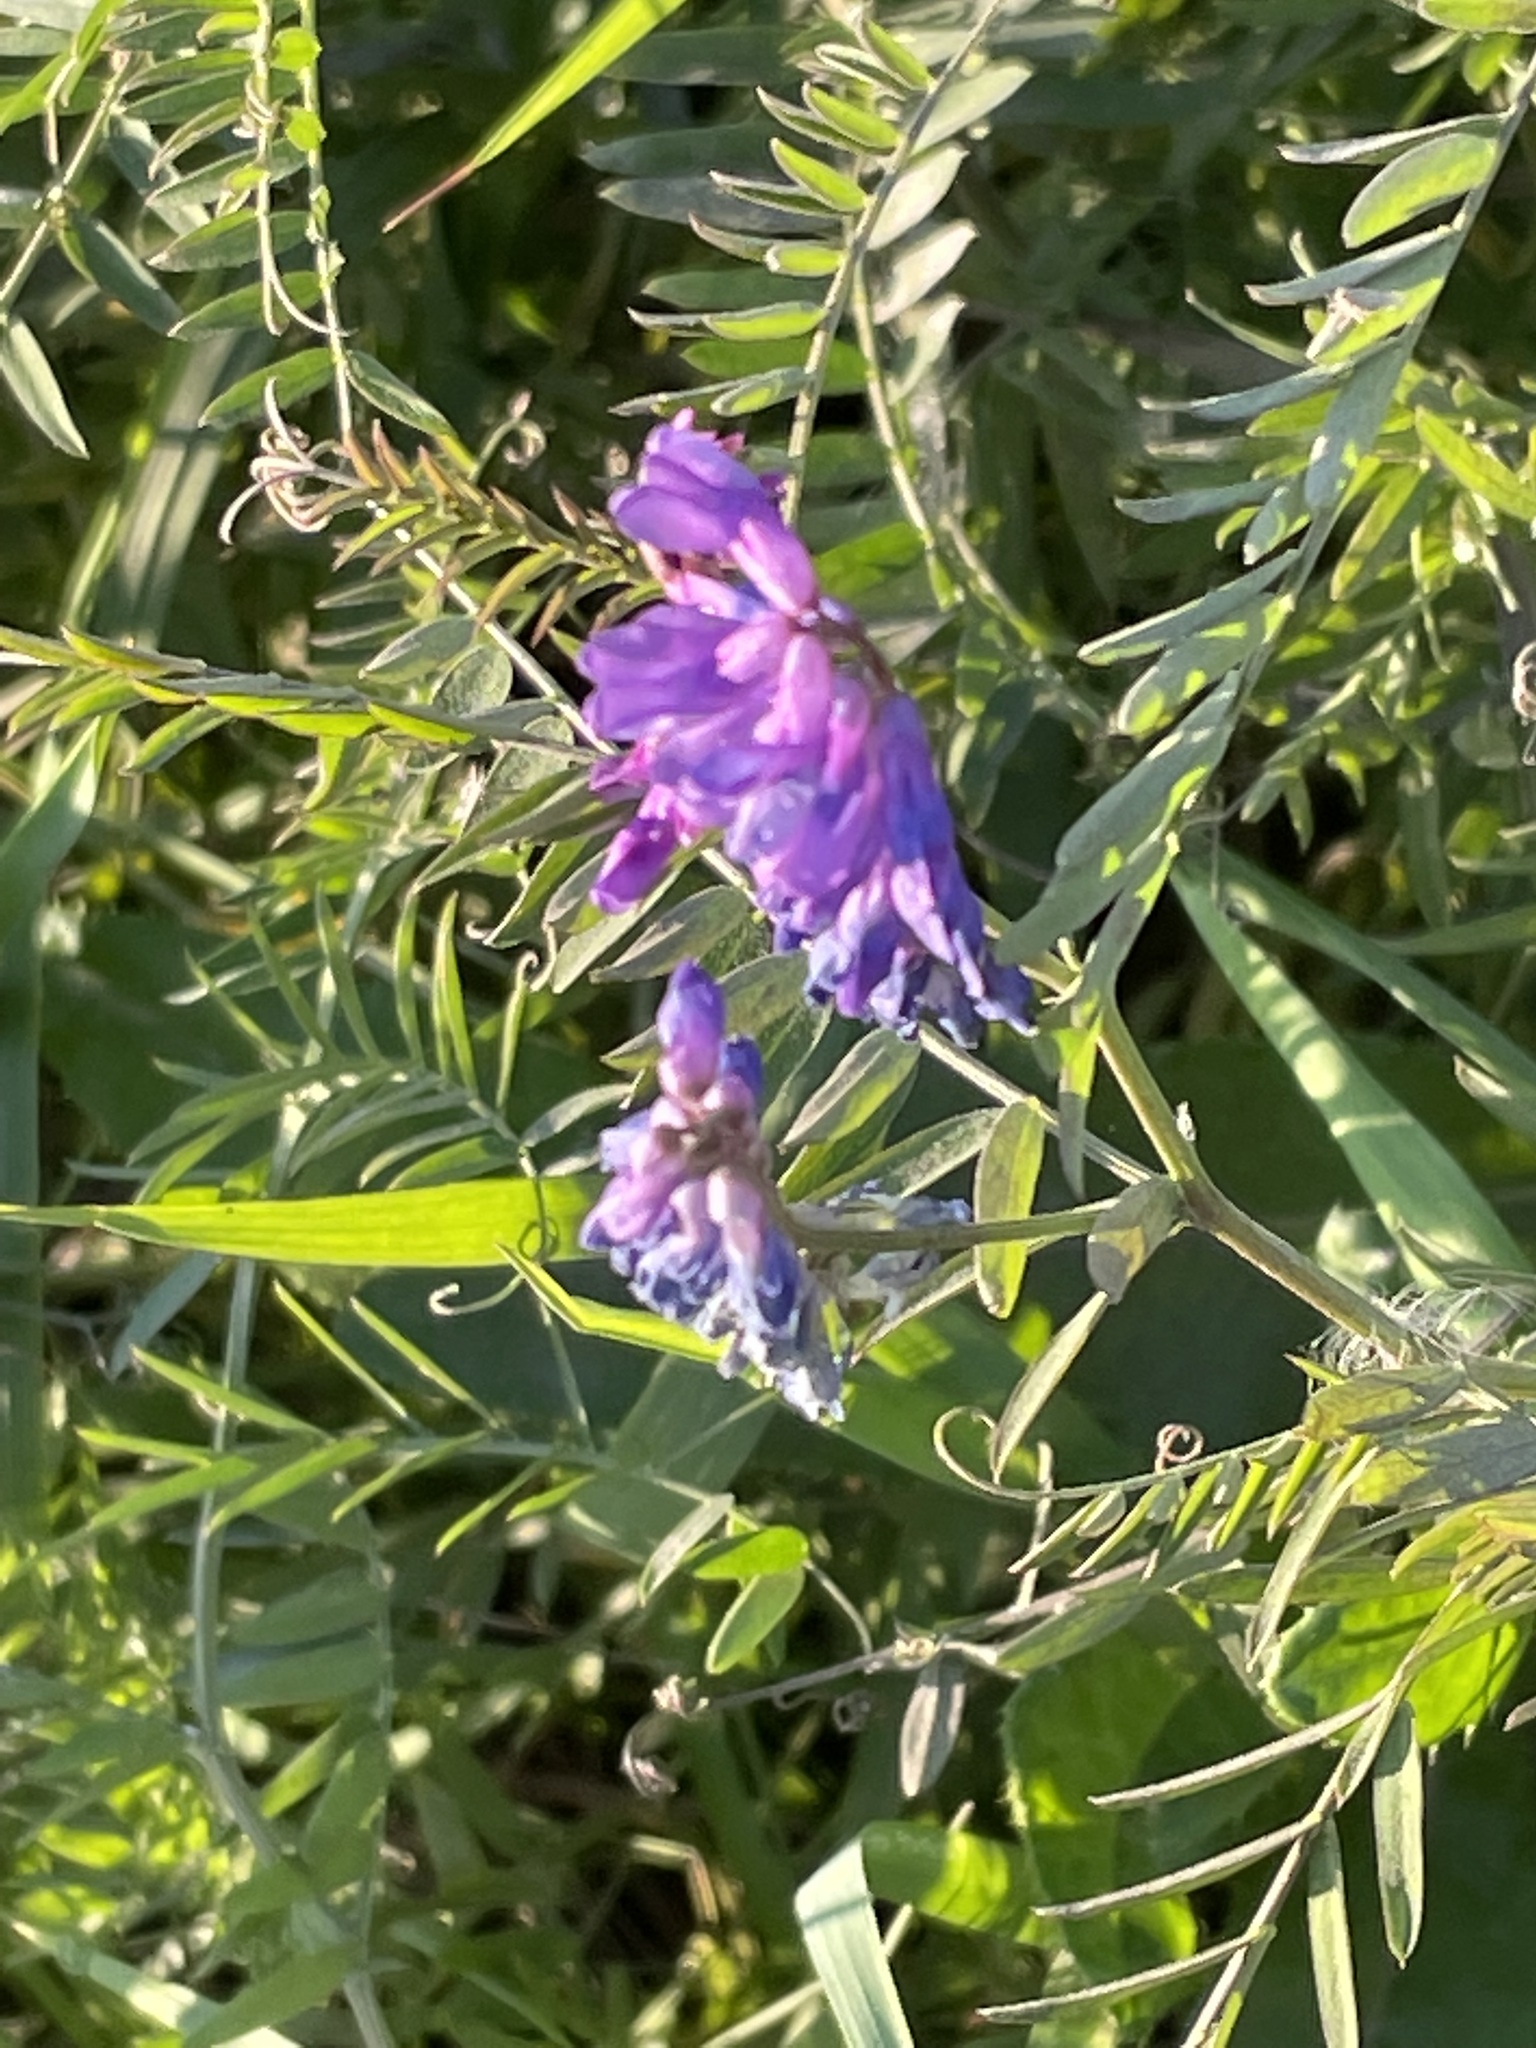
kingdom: Plantae
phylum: Tracheophyta
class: Magnoliopsida
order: Fabales
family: Fabaceae
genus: Vicia
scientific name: Vicia cracca
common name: Bird vetch
